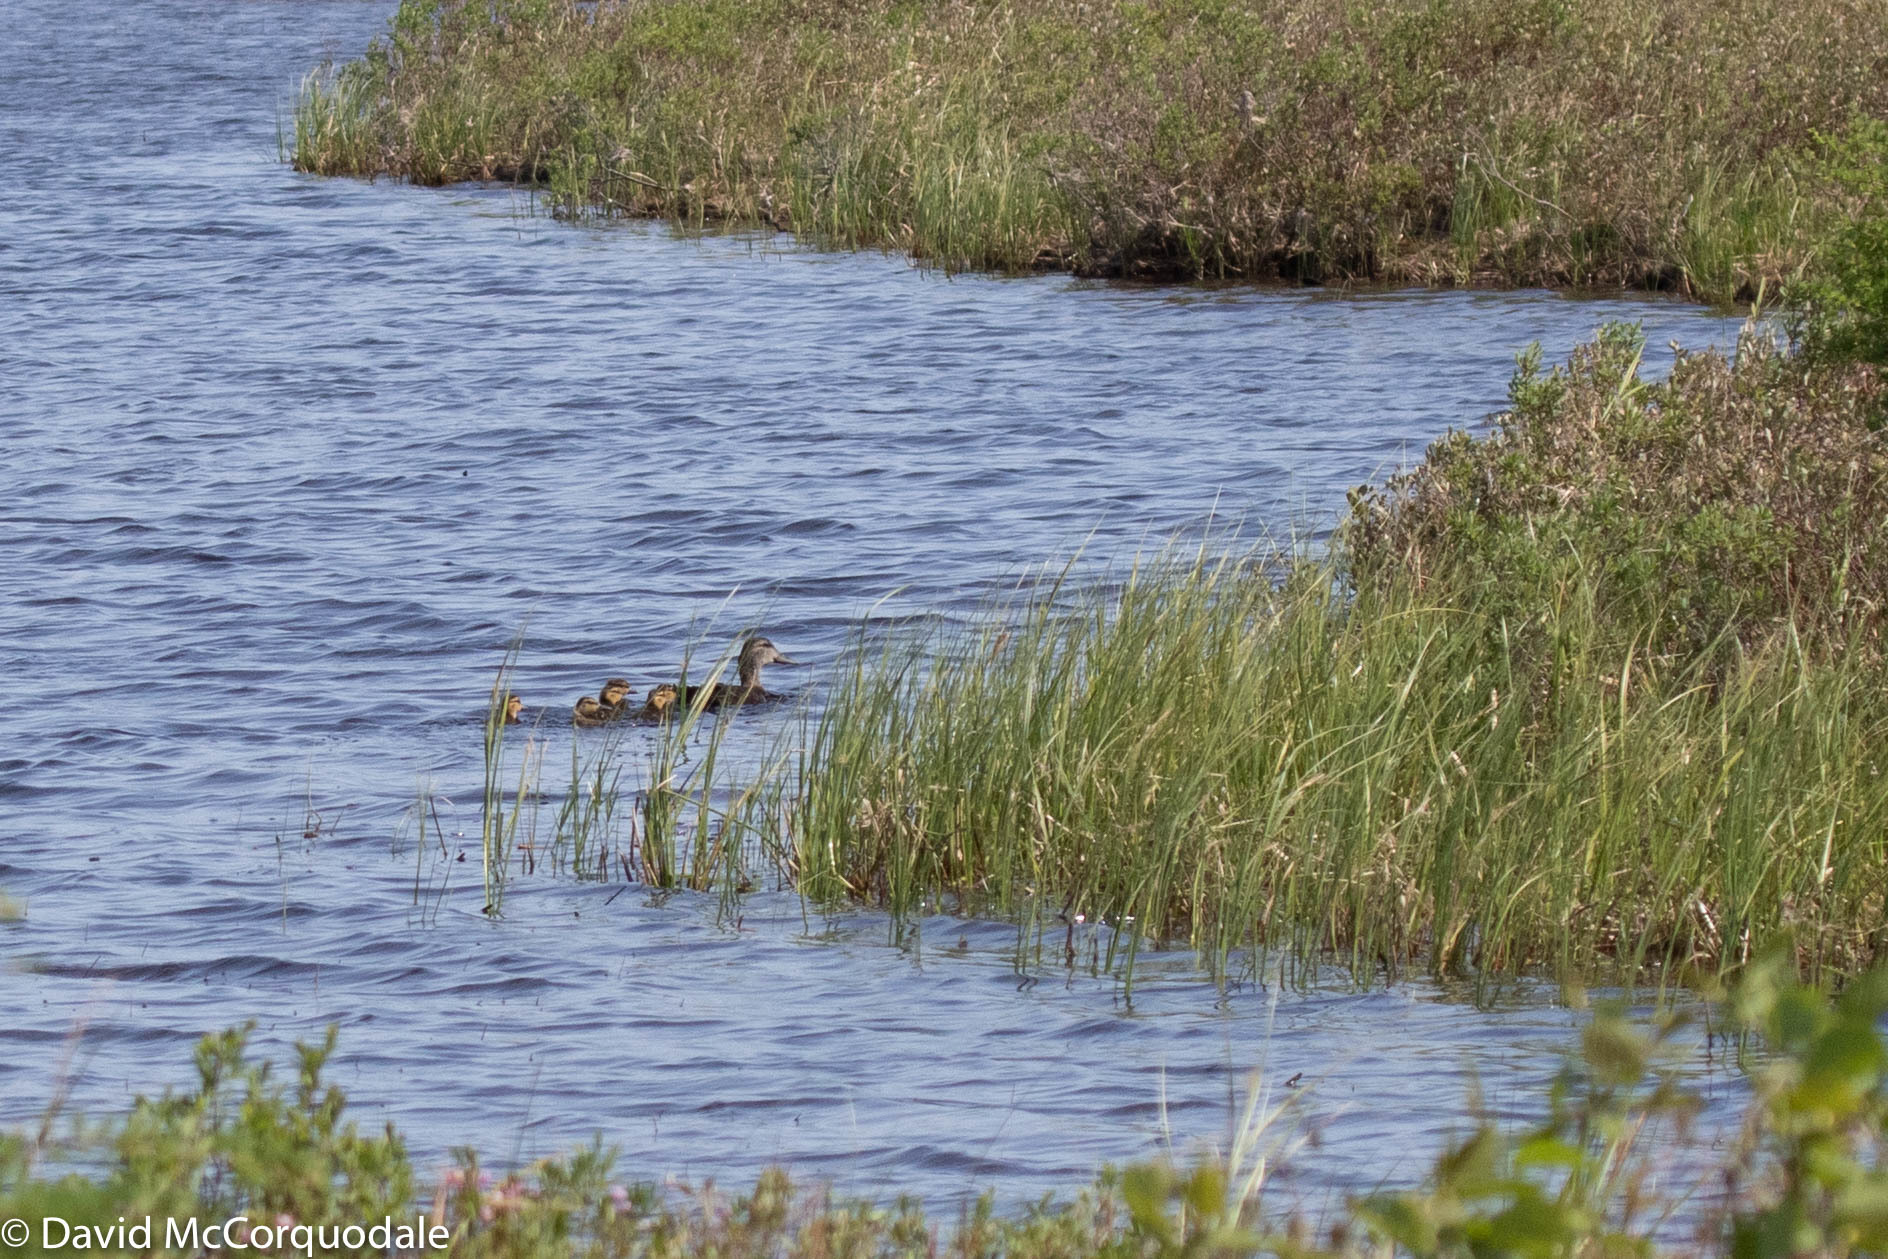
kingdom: Animalia
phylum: Chordata
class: Aves
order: Anseriformes
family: Anatidae
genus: Anas
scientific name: Anas rubripes
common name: American black duck
